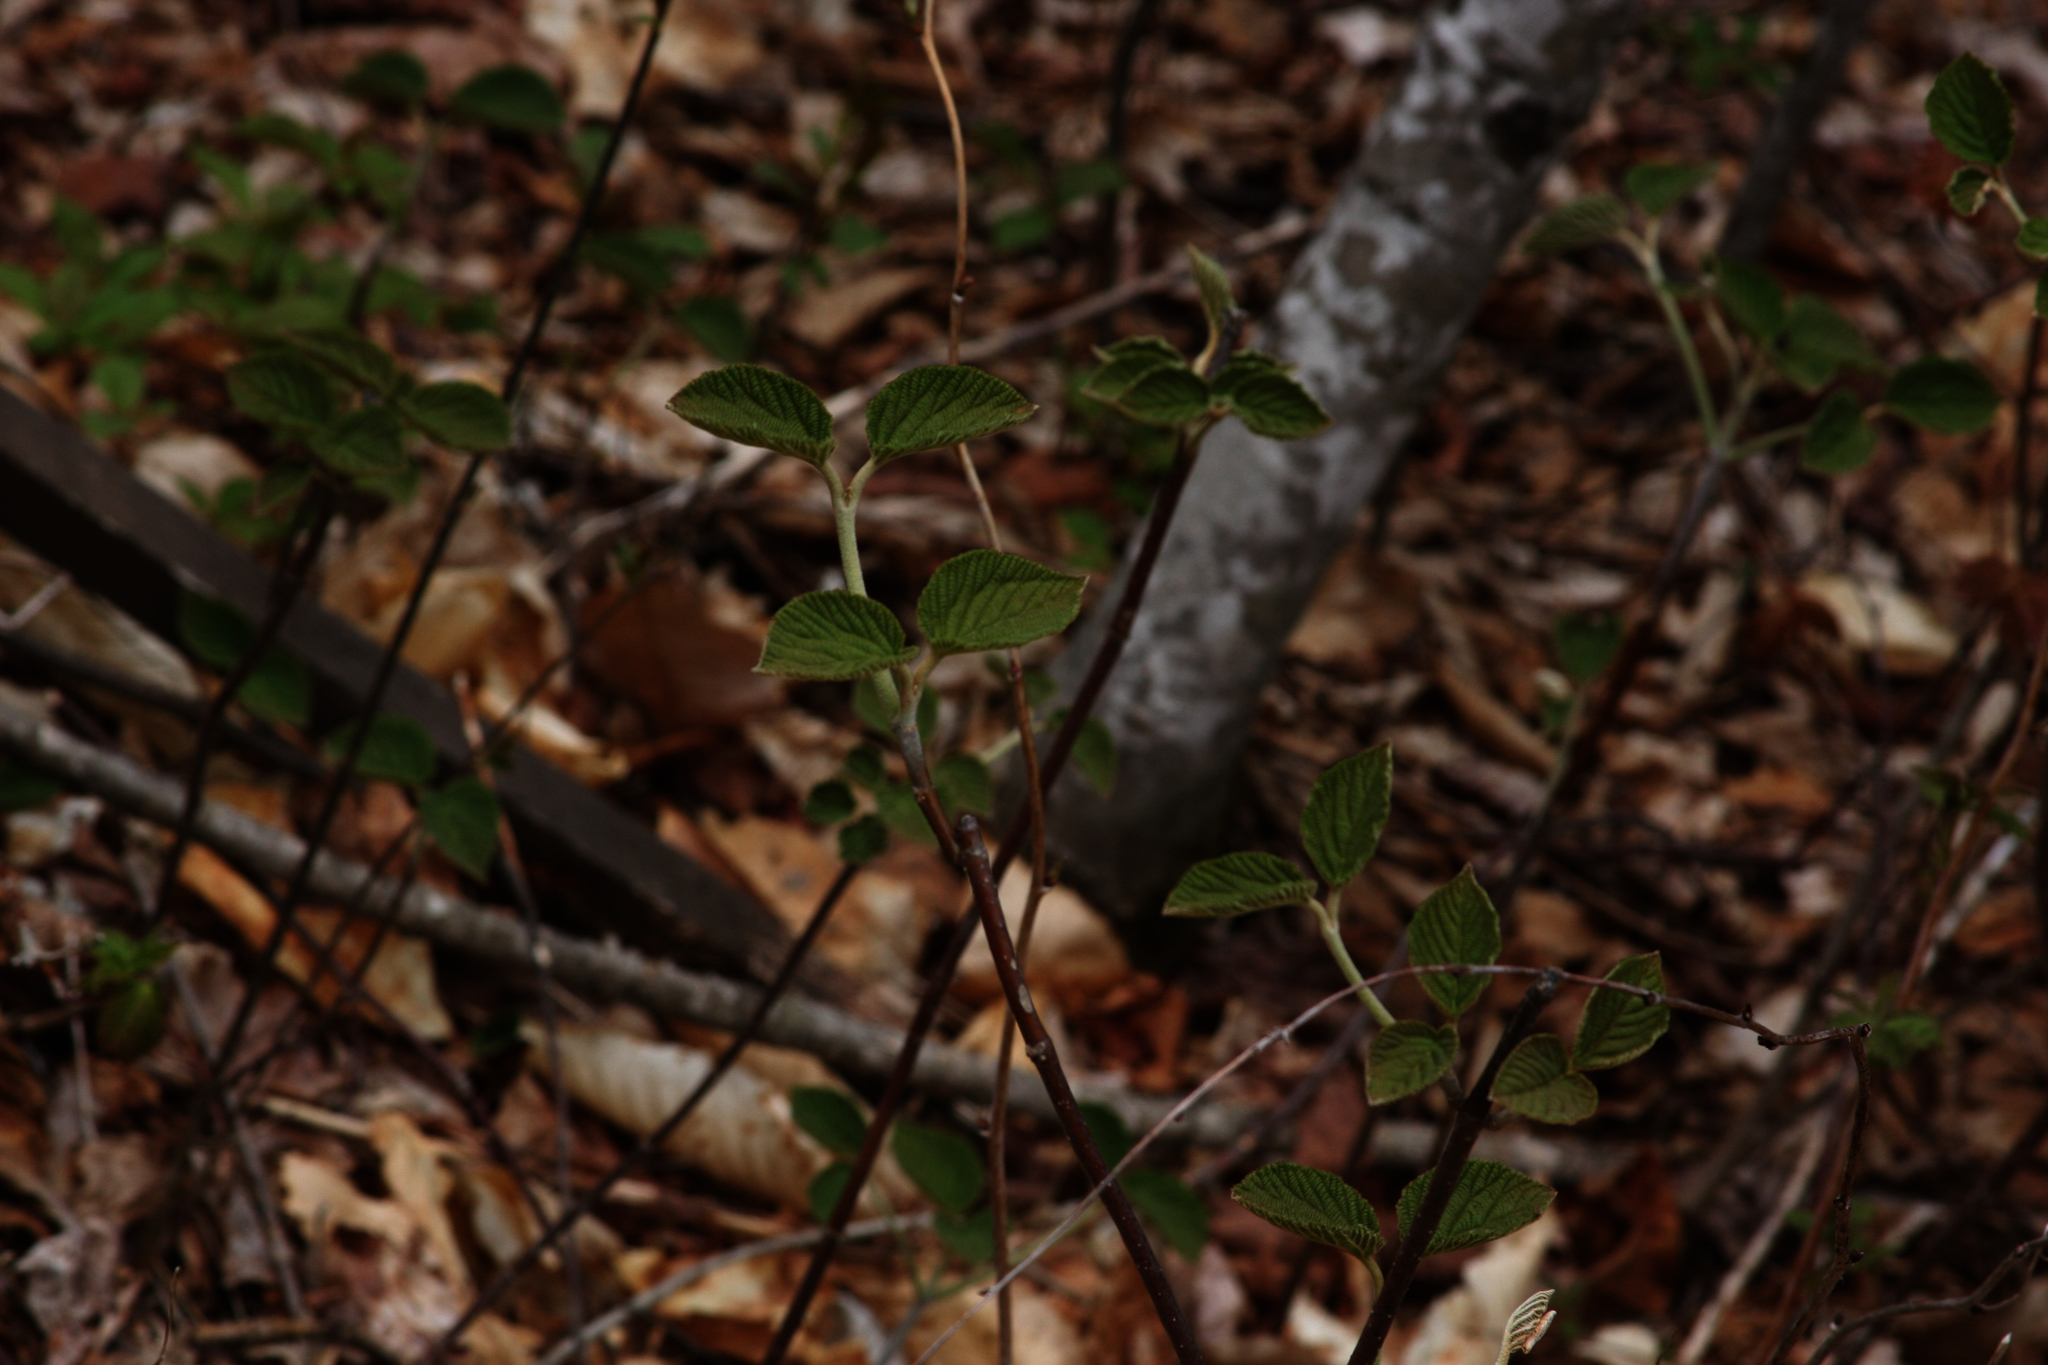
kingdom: Plantae
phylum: Tracheophyta
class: Magnoliopsida
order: Dipsacales
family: Viburnaceae
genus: Viburnum
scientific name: Viburnum lantanoides
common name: Hobblebush
